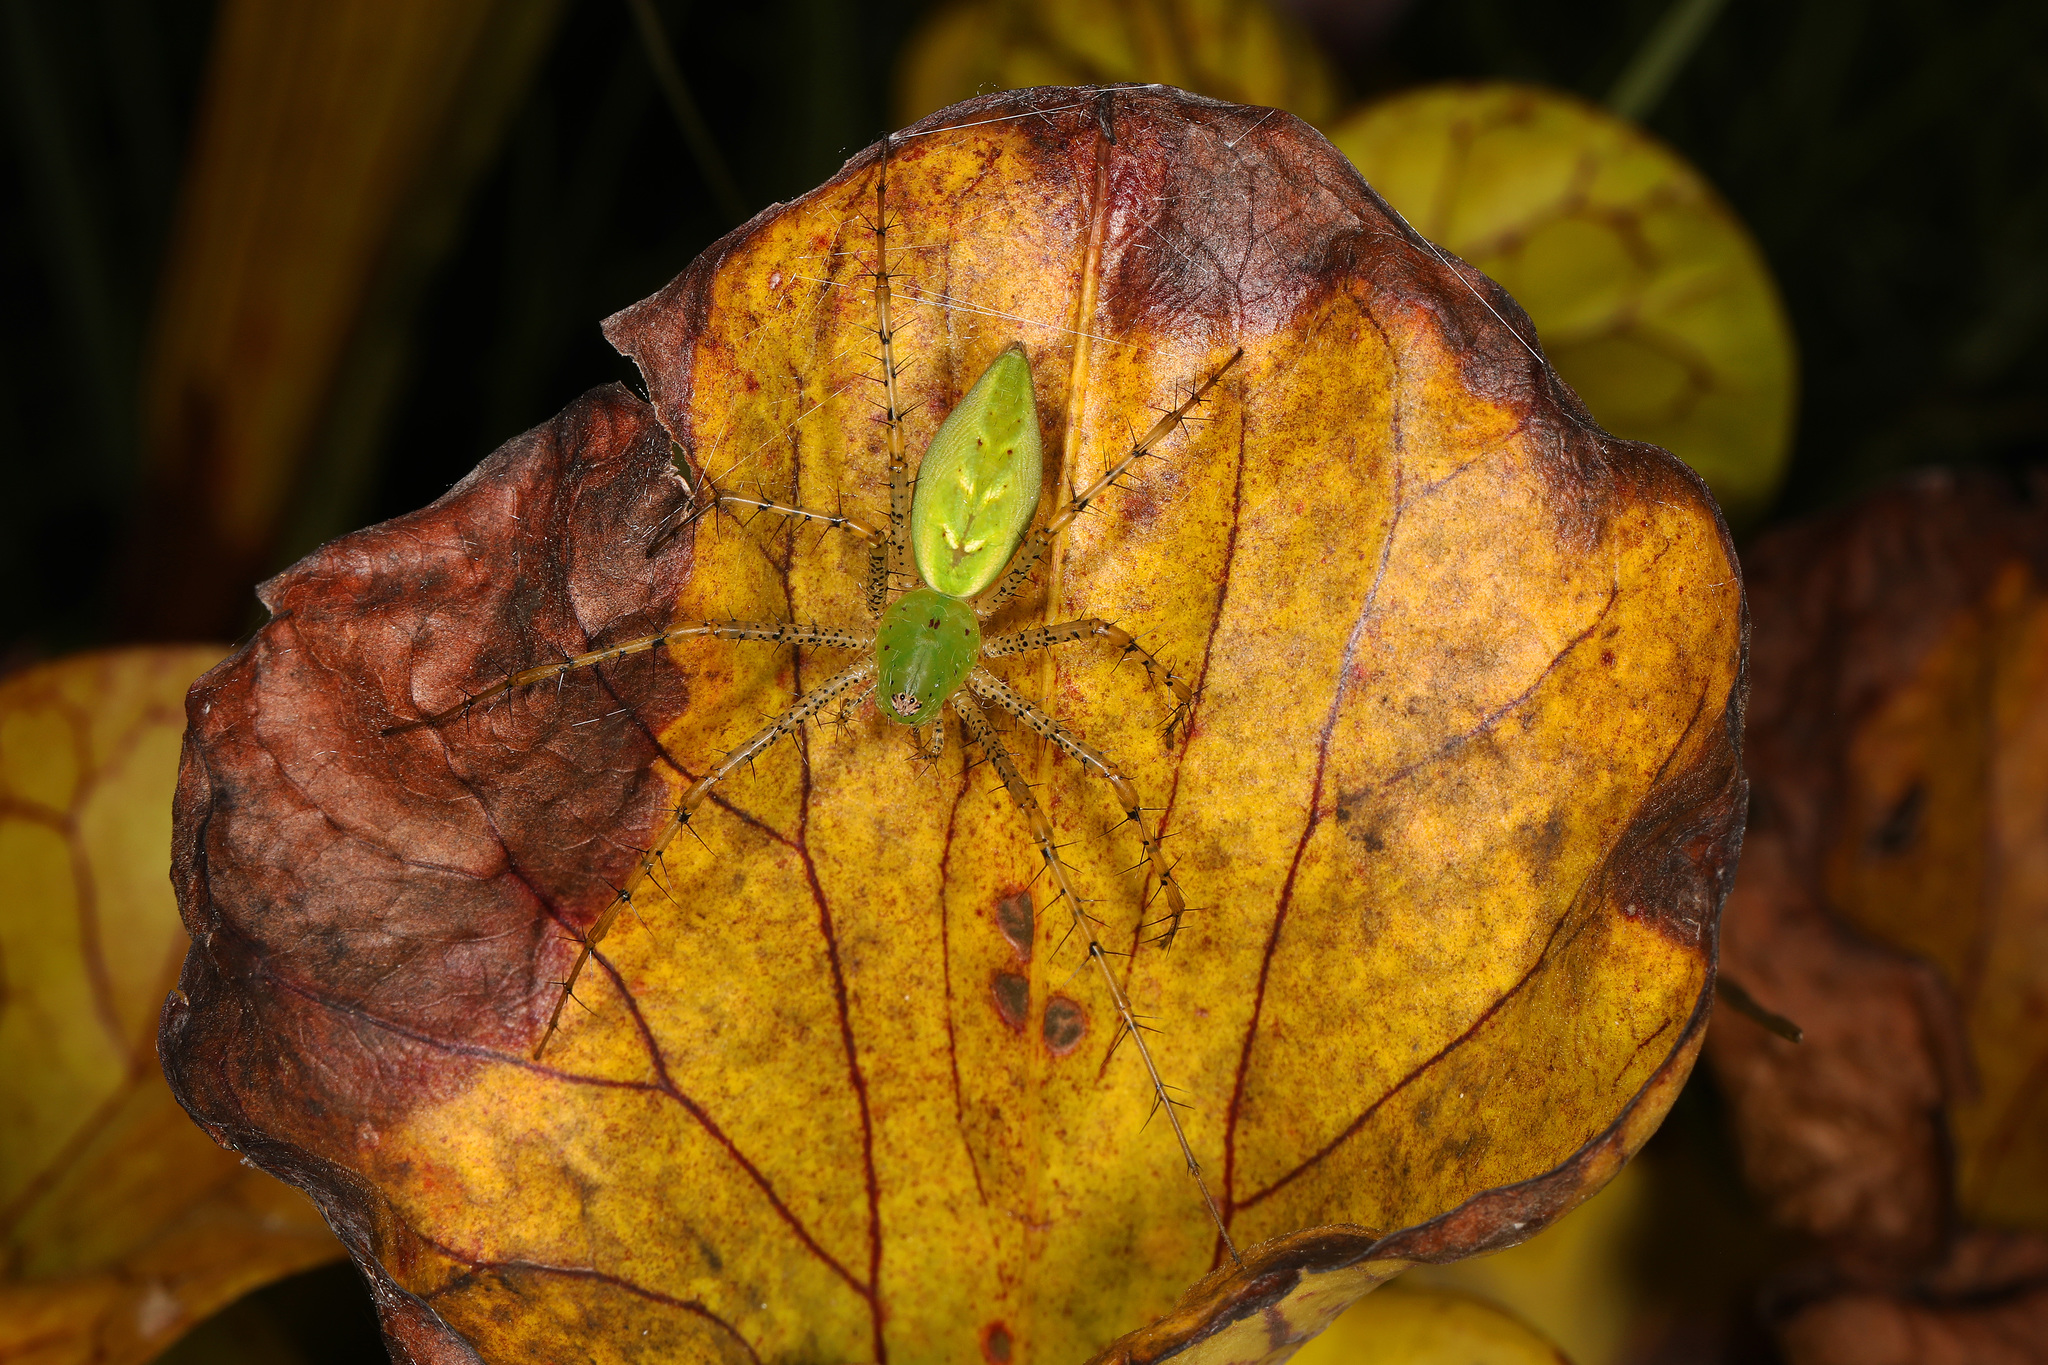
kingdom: Animalia
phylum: Arthropoda
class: Arachnida
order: Araneae
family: Oxyopidae
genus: Peucetia
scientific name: Peucetia viridans
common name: Lynx spiders
